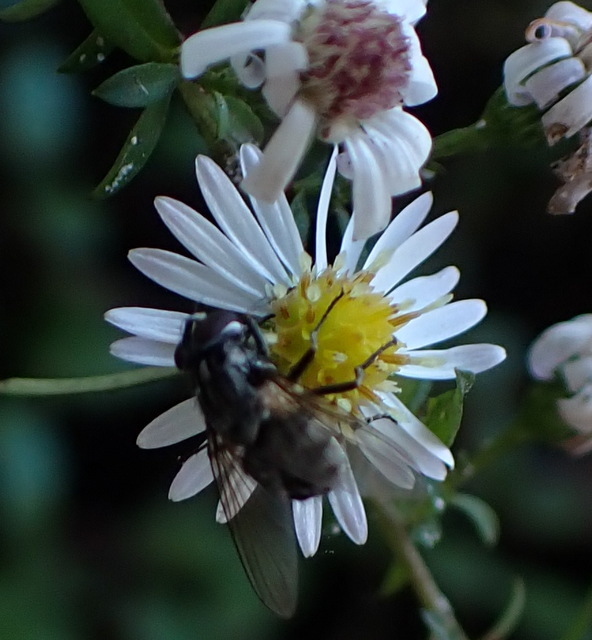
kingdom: Animalia
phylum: Arthropoda
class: Insecta
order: Diptera
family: Muscidae
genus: Stomoxys
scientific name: Stomoxys calcitrans
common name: Stable fly
